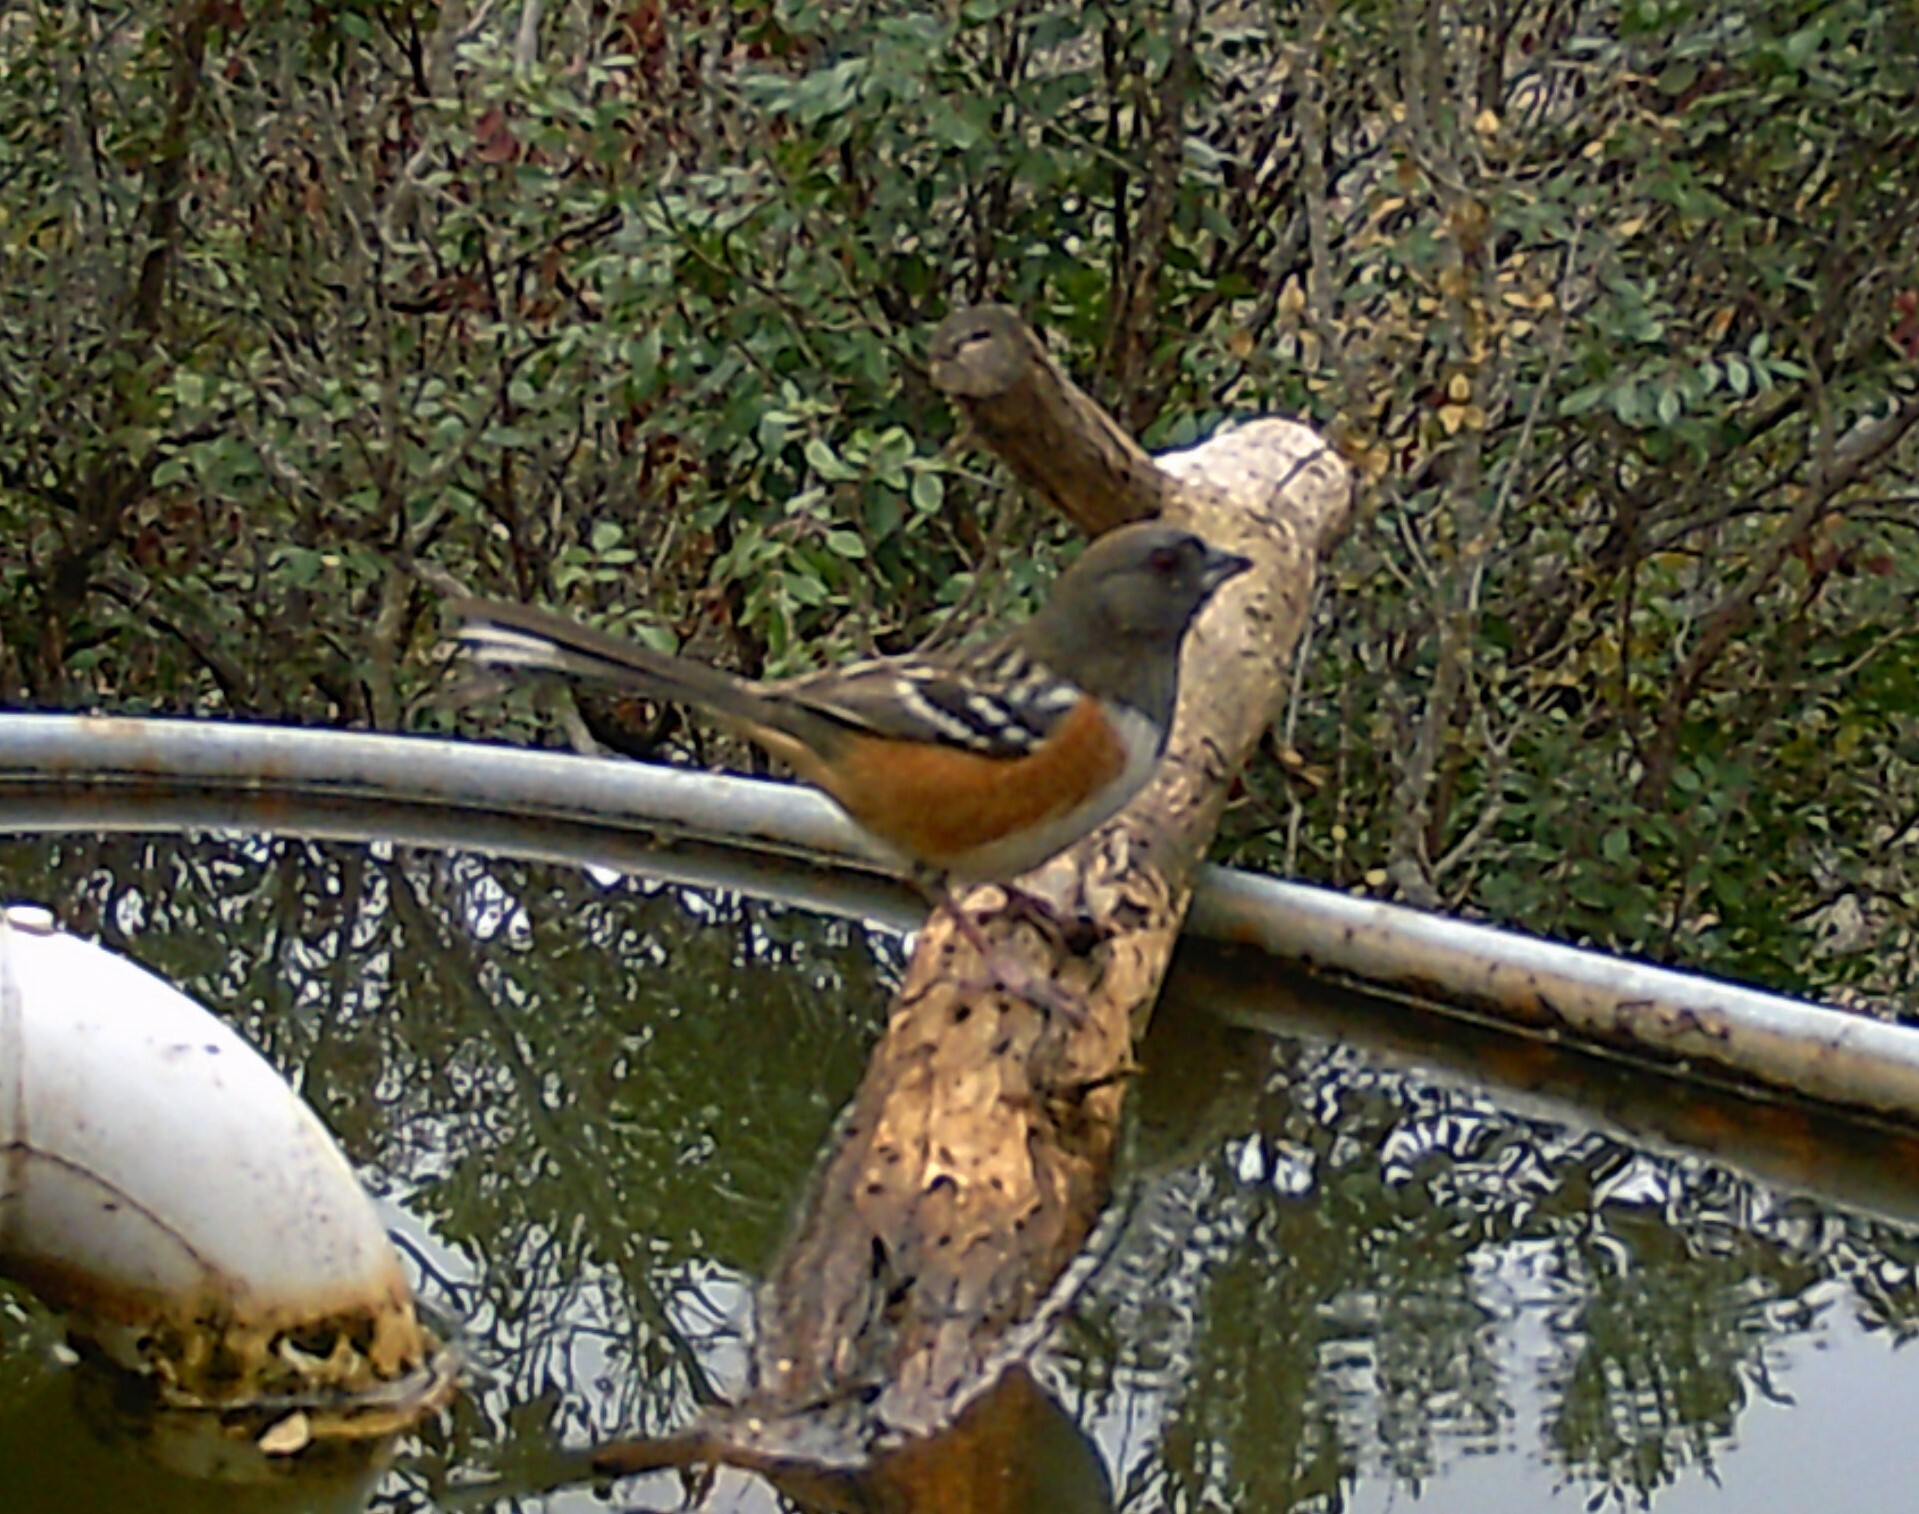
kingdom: Animalia
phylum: Chordata
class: Aves
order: Passeriformes
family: Passerellidae
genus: Pipilo
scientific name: Pipilo maculatus
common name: Spotted towhee
